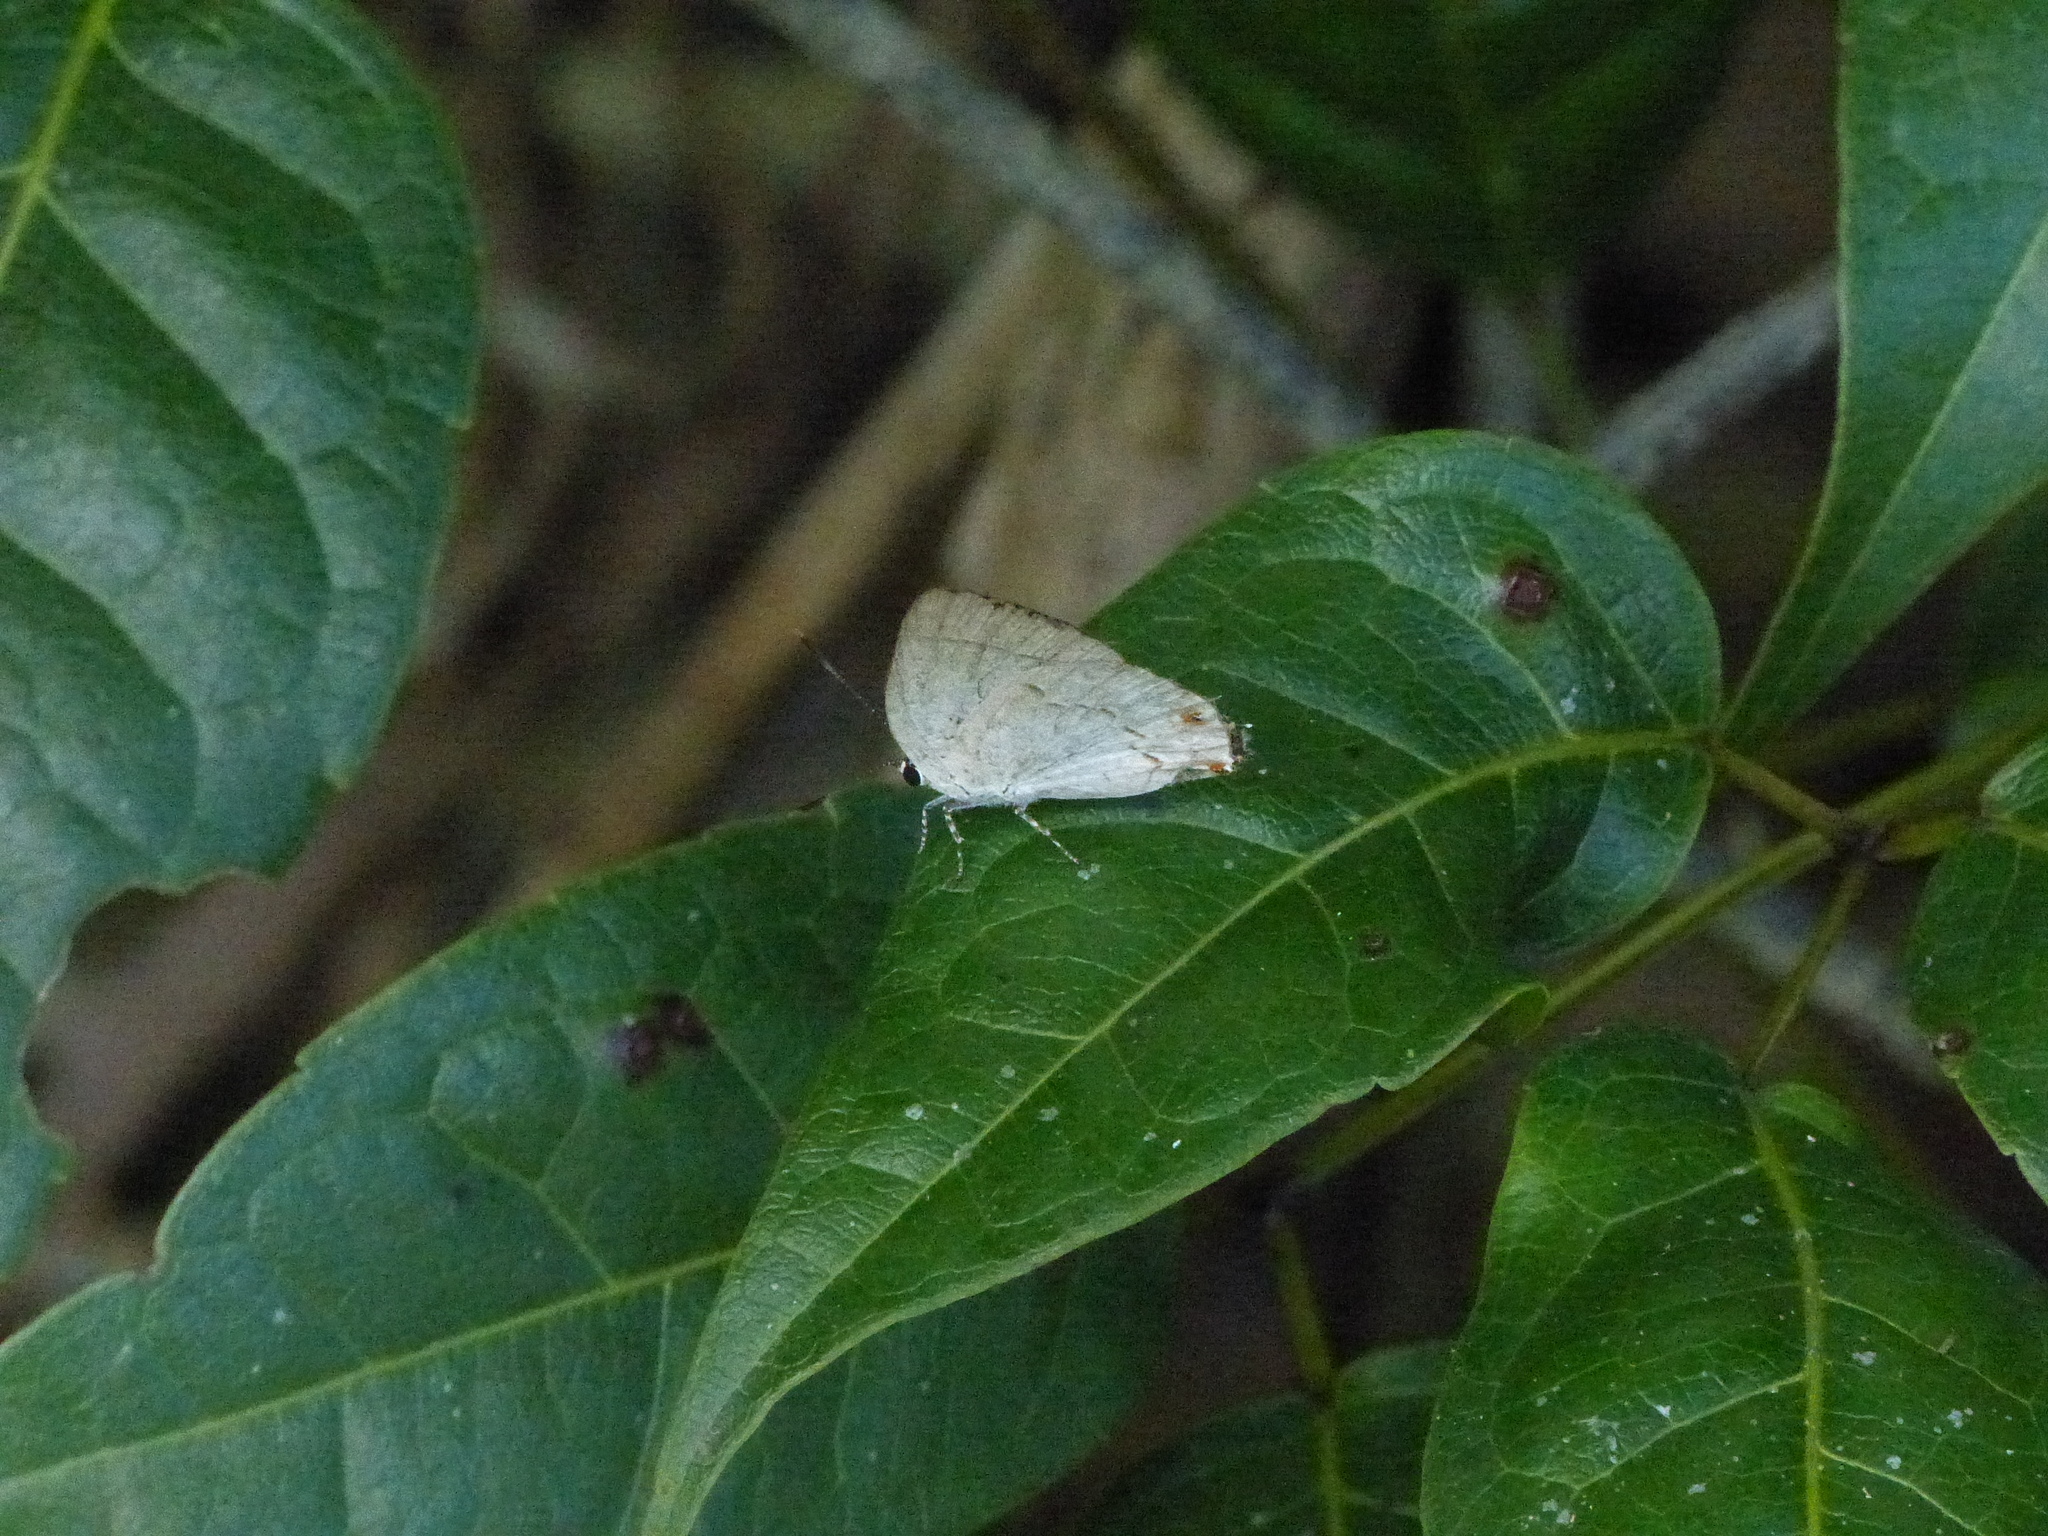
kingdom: Animalia
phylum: Arthropoda
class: Insecta
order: Lepidoptera
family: Lycaenidae
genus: Thecla
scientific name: Thecla philinna
